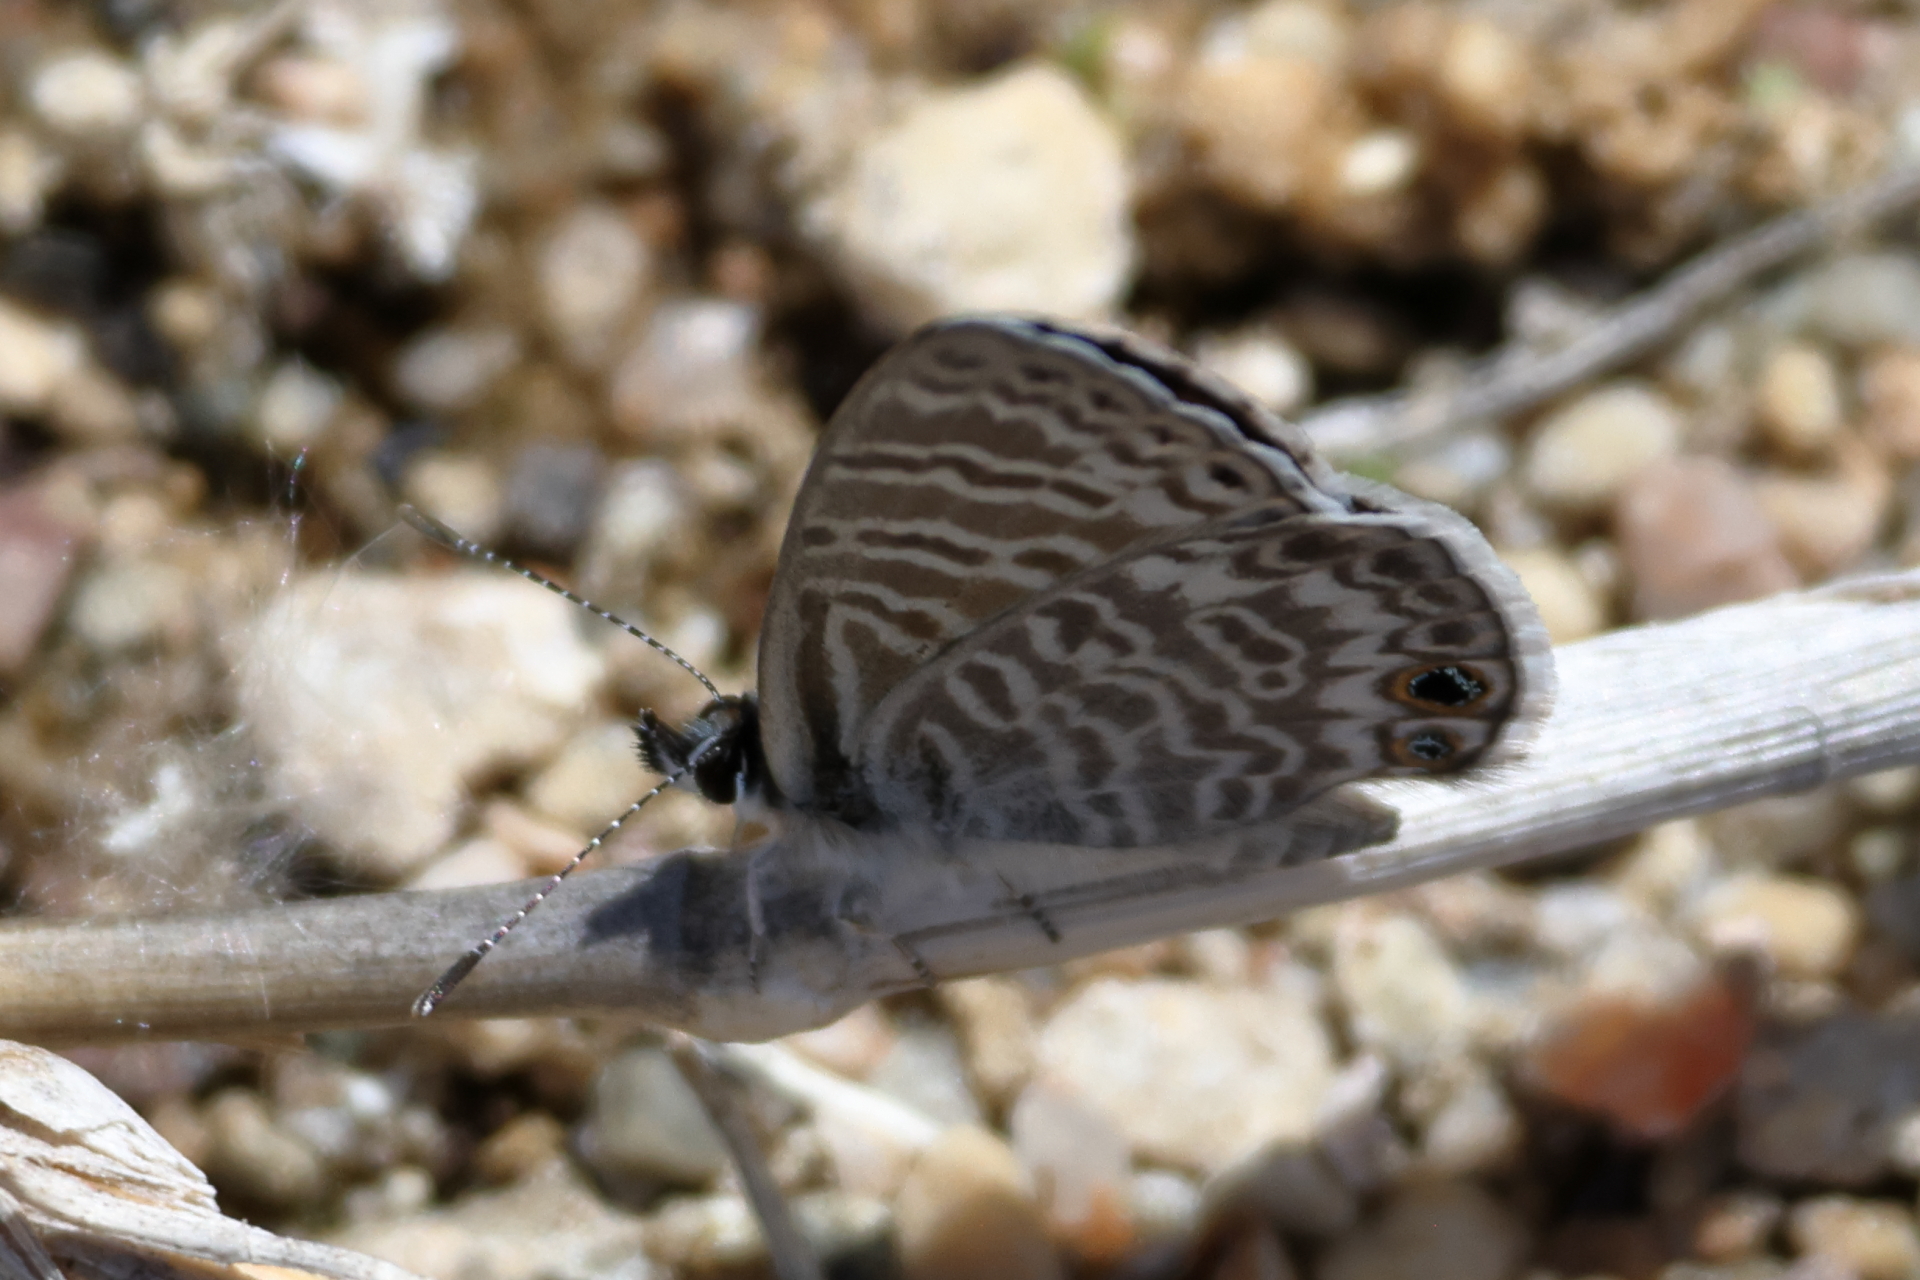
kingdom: Animalia
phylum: Arthropoda
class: Insecta
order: Lepidoptera
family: Lycaenidae
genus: Leptotes
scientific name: Leptotes marina
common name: Marine blue
